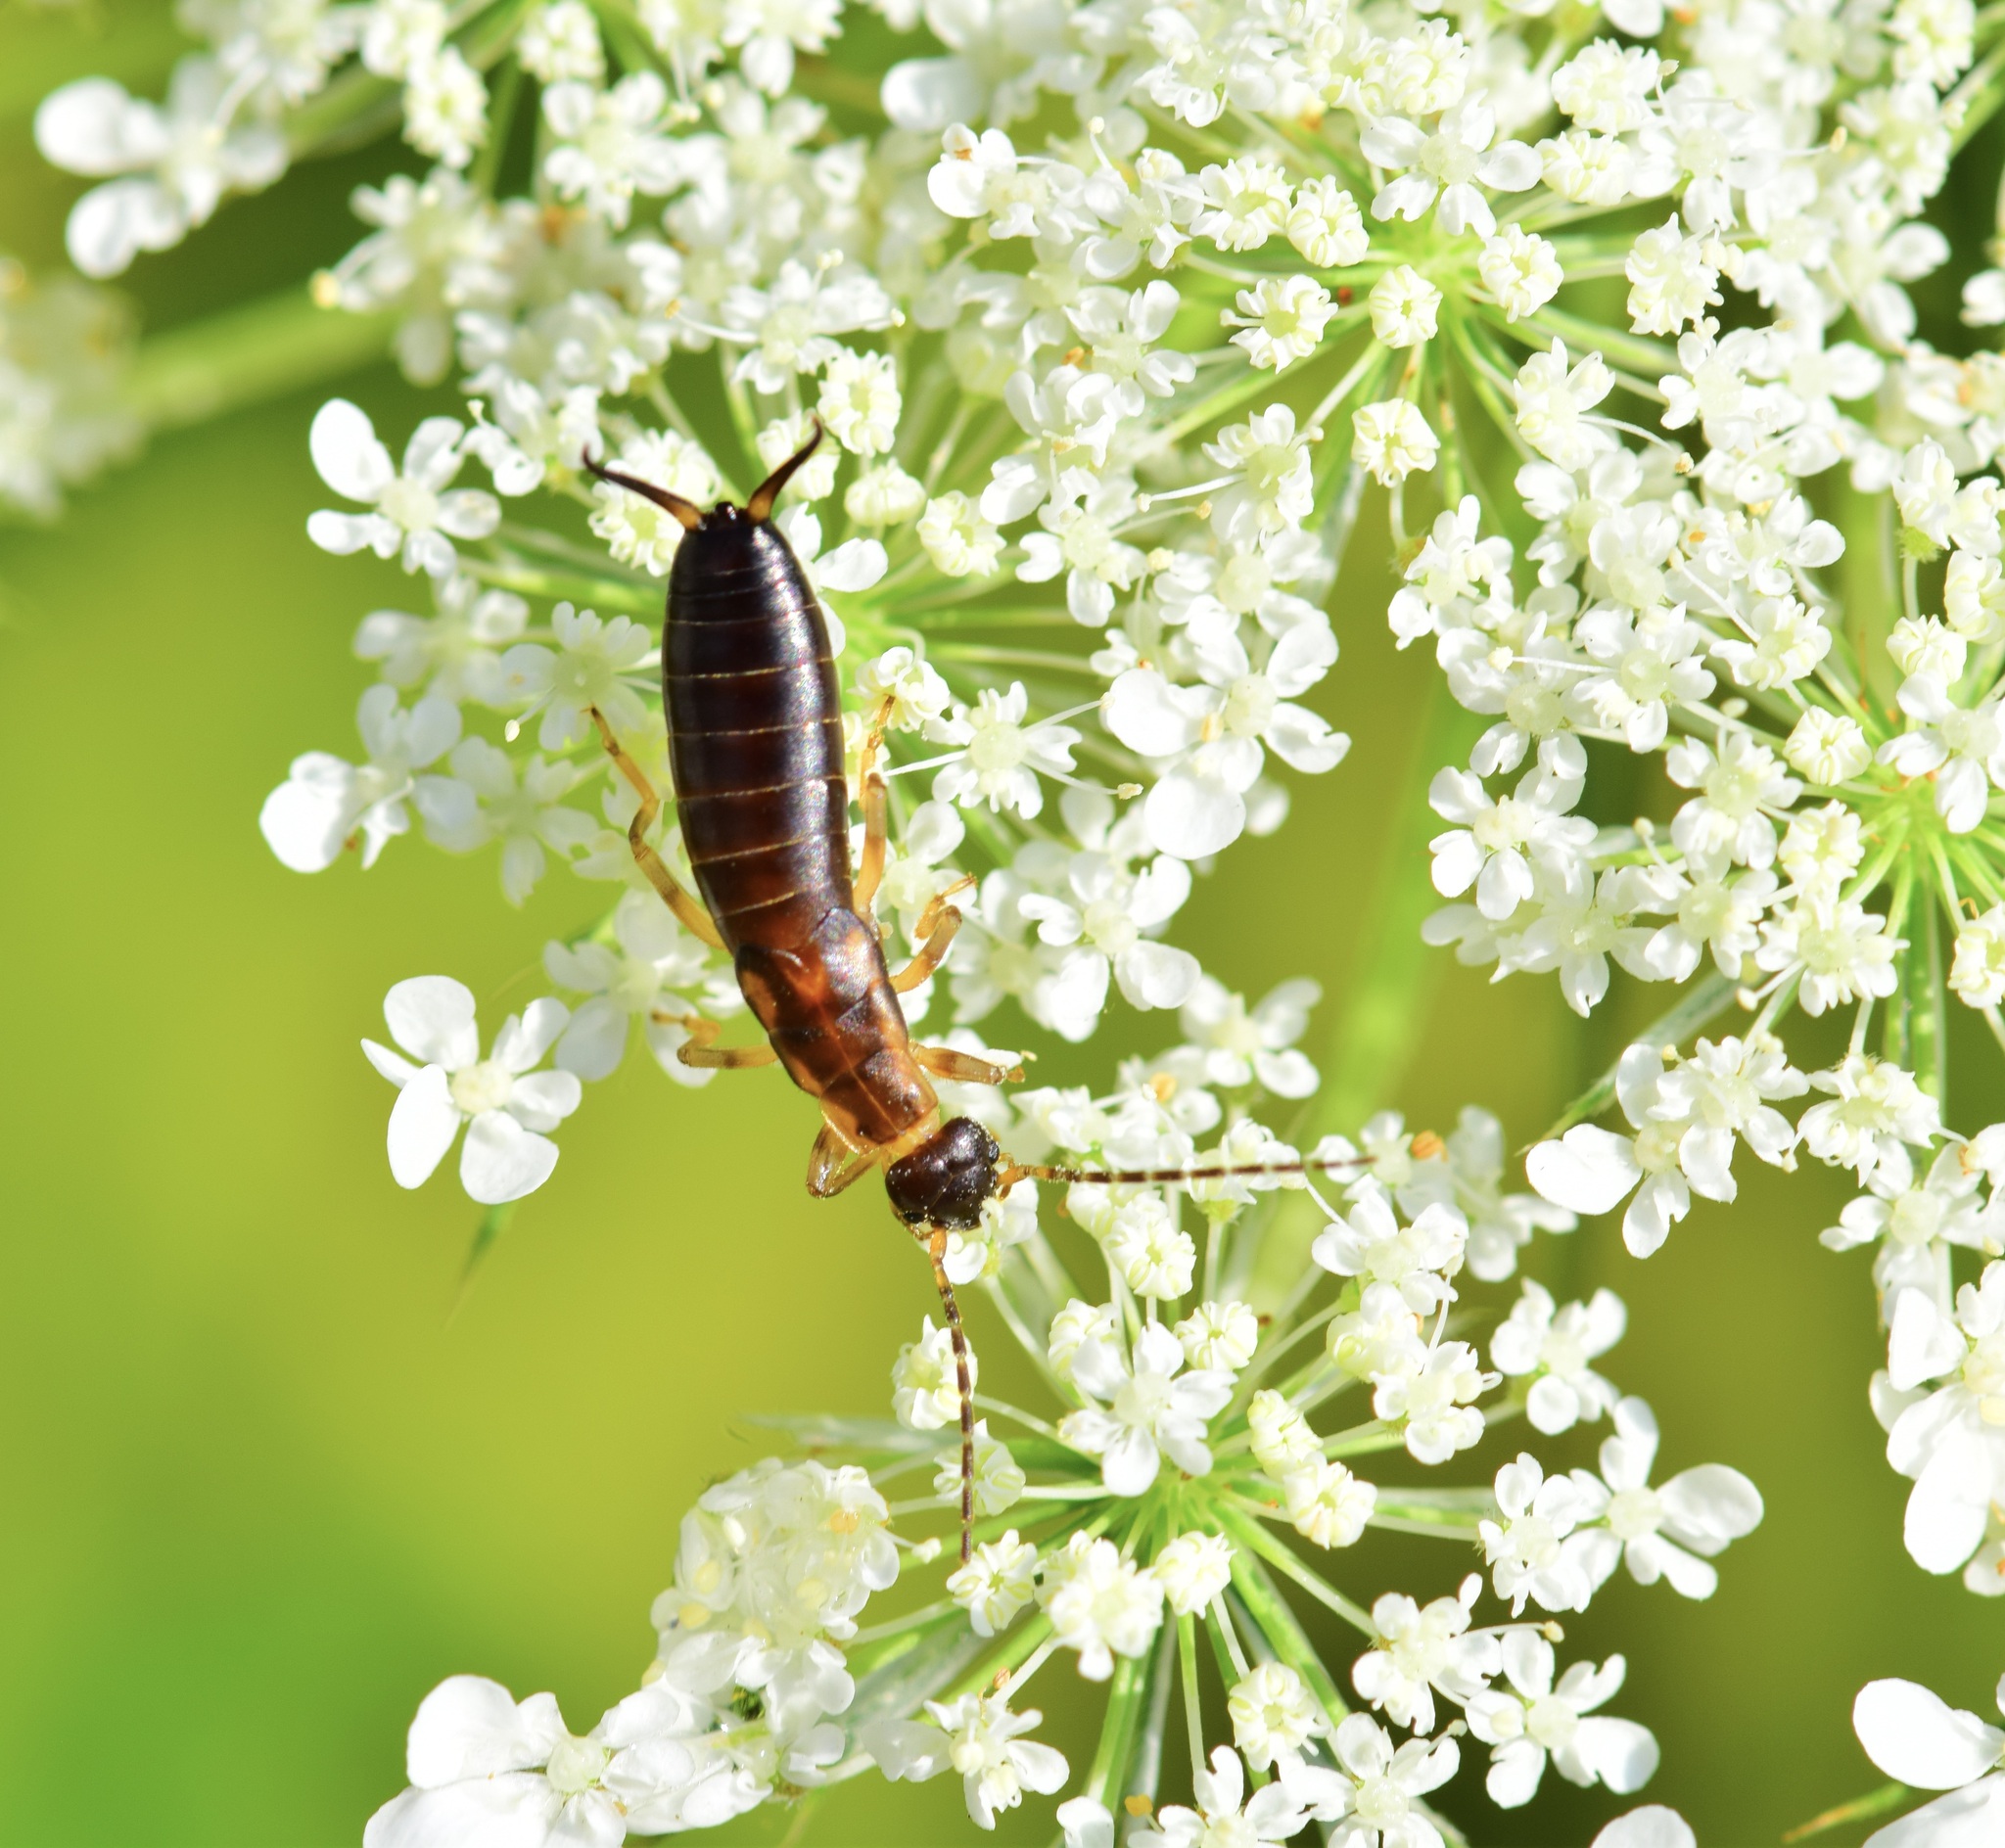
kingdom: Animalia
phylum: Arthropoda
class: Insecta
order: Dermaptera
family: Forficulidae
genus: Forficula
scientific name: Forficula
